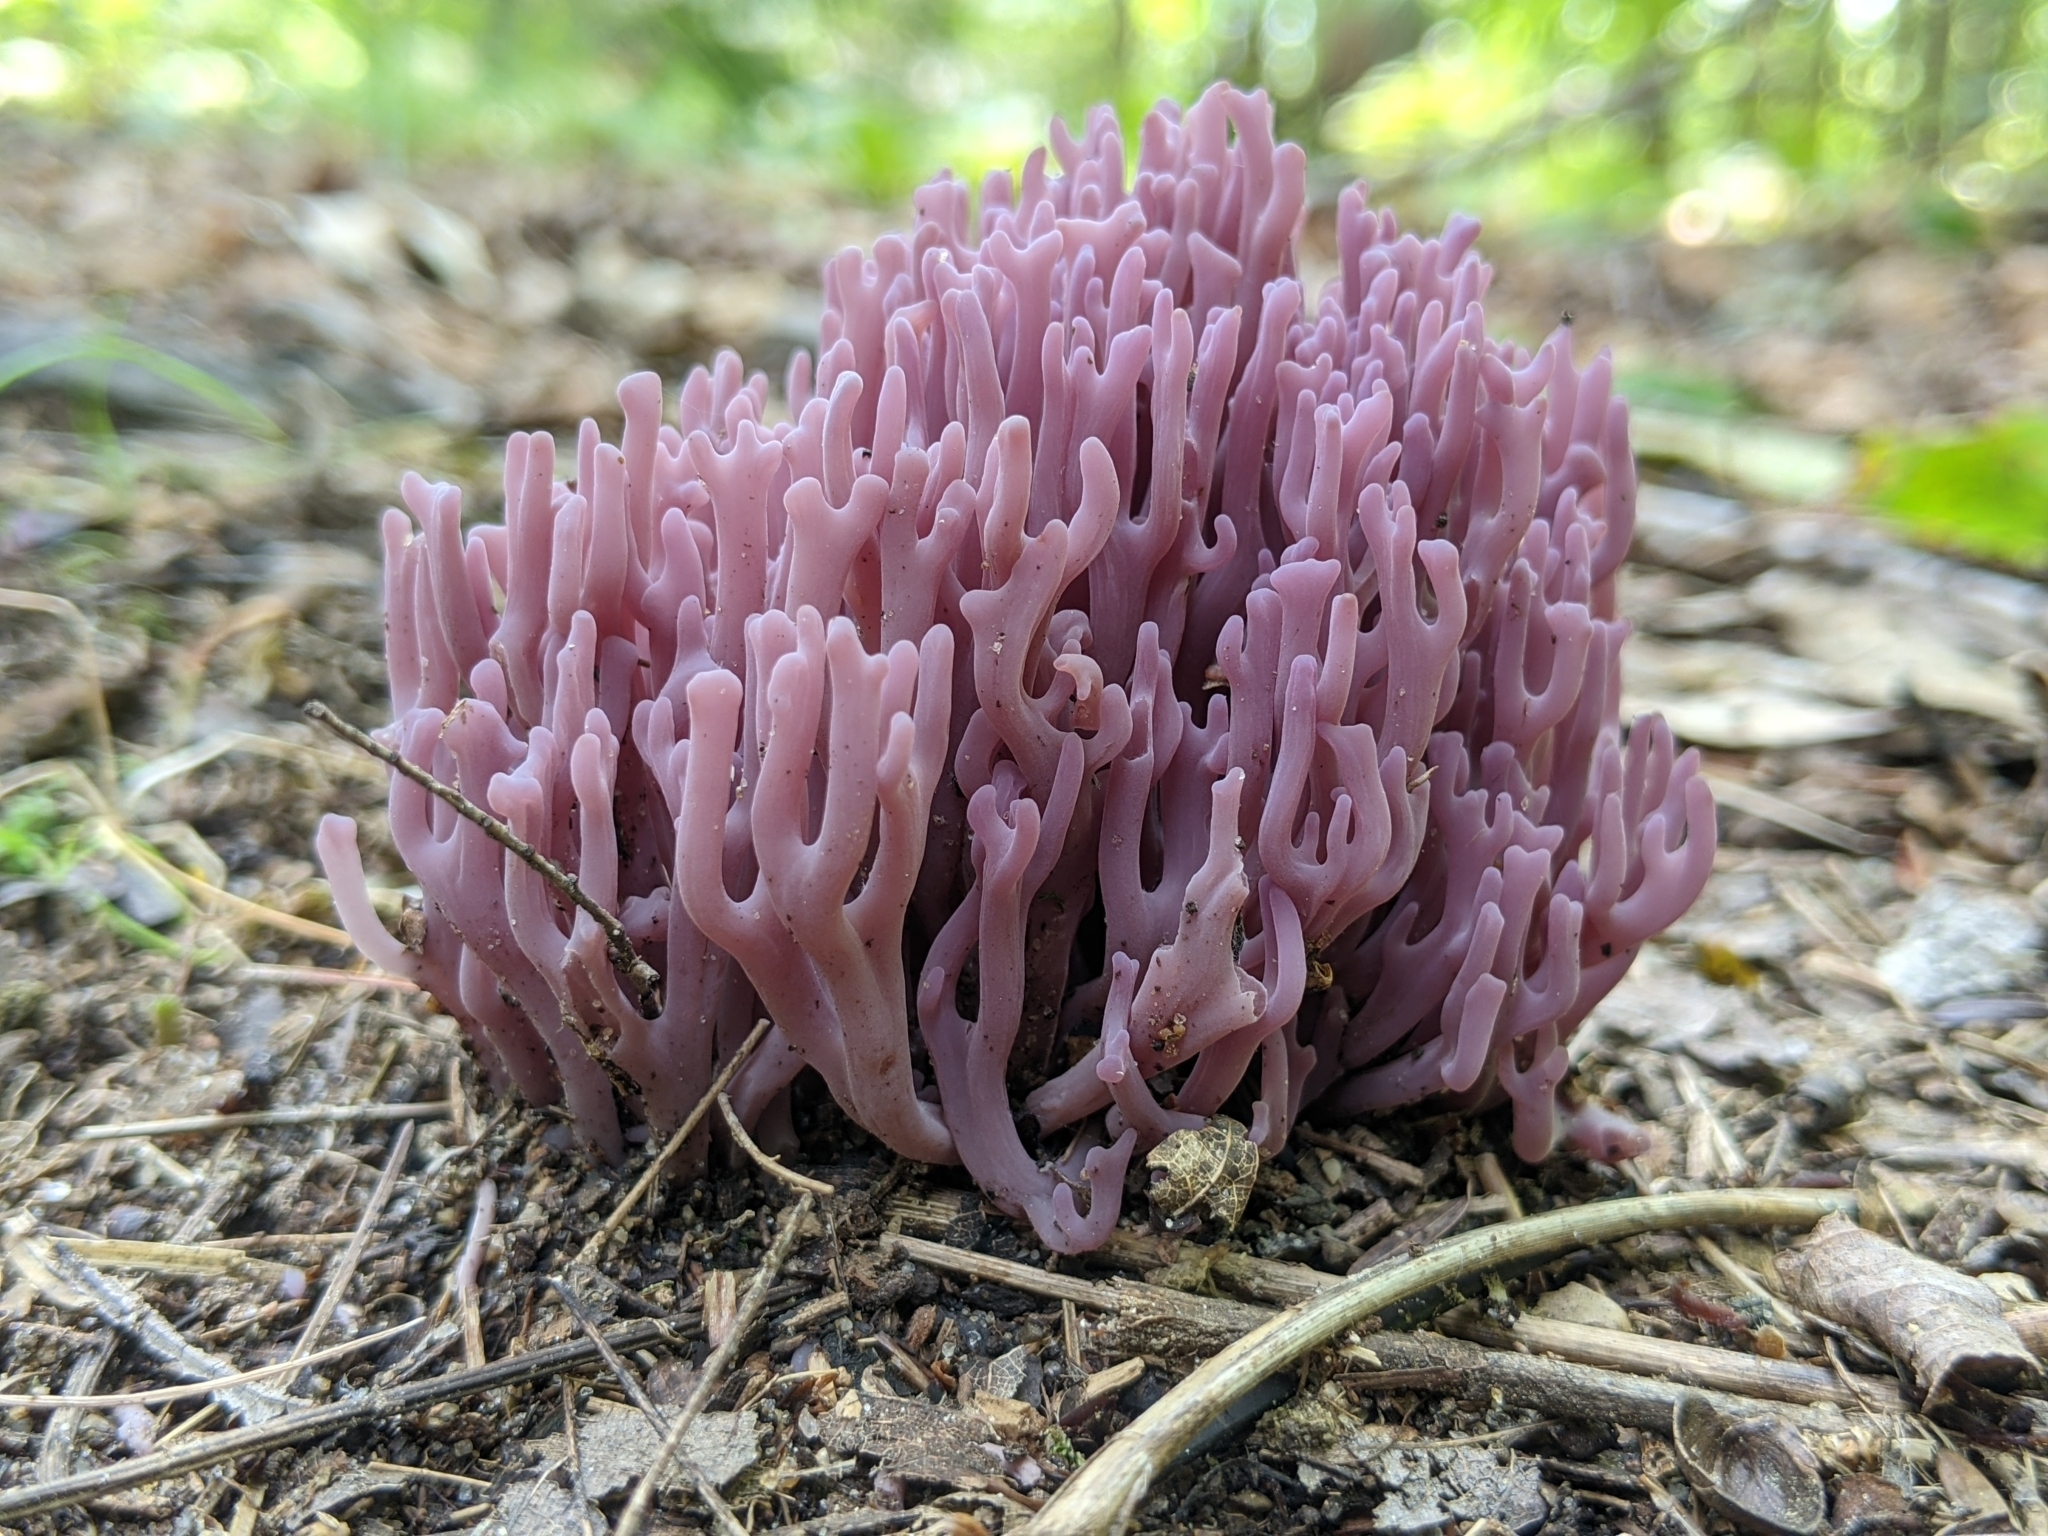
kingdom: Fungi
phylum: Basidiomycota
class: Agaricomycetes
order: Agaricales
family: Clavariaceae
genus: Clavaria
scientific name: Clavaria zollingeri
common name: Violet coral
